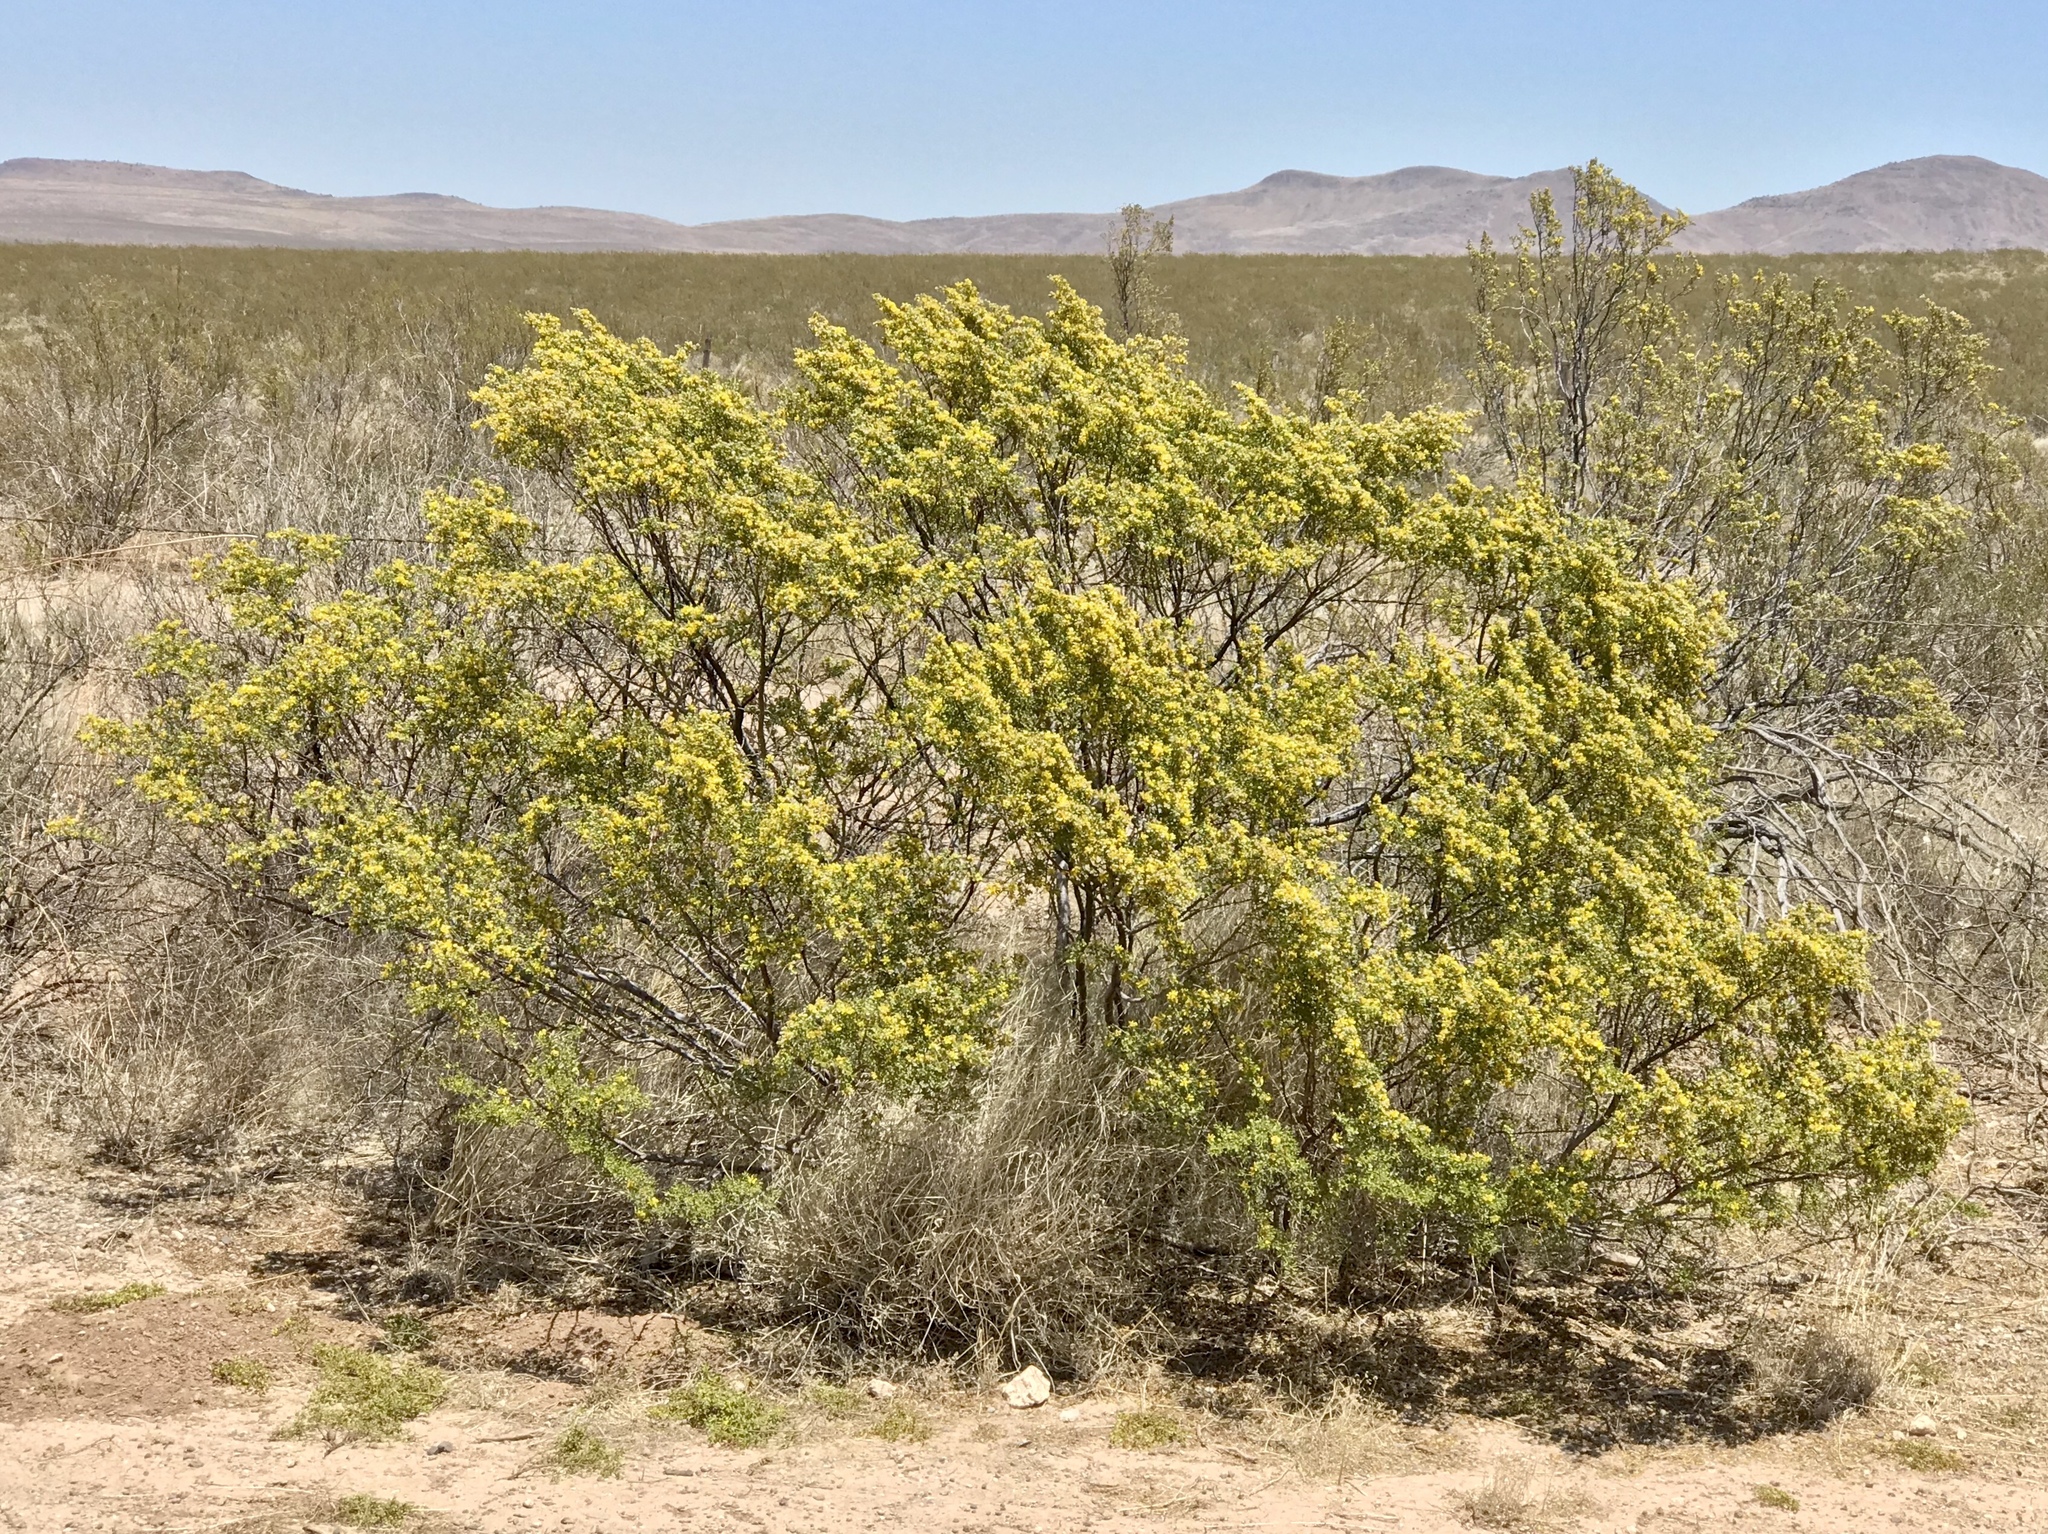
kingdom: Plantae
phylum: Tracheophyta
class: Magnoliopsida
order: Zygophyllales
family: Zygophyllaceae
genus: Larrea
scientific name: Larrea tridentata
